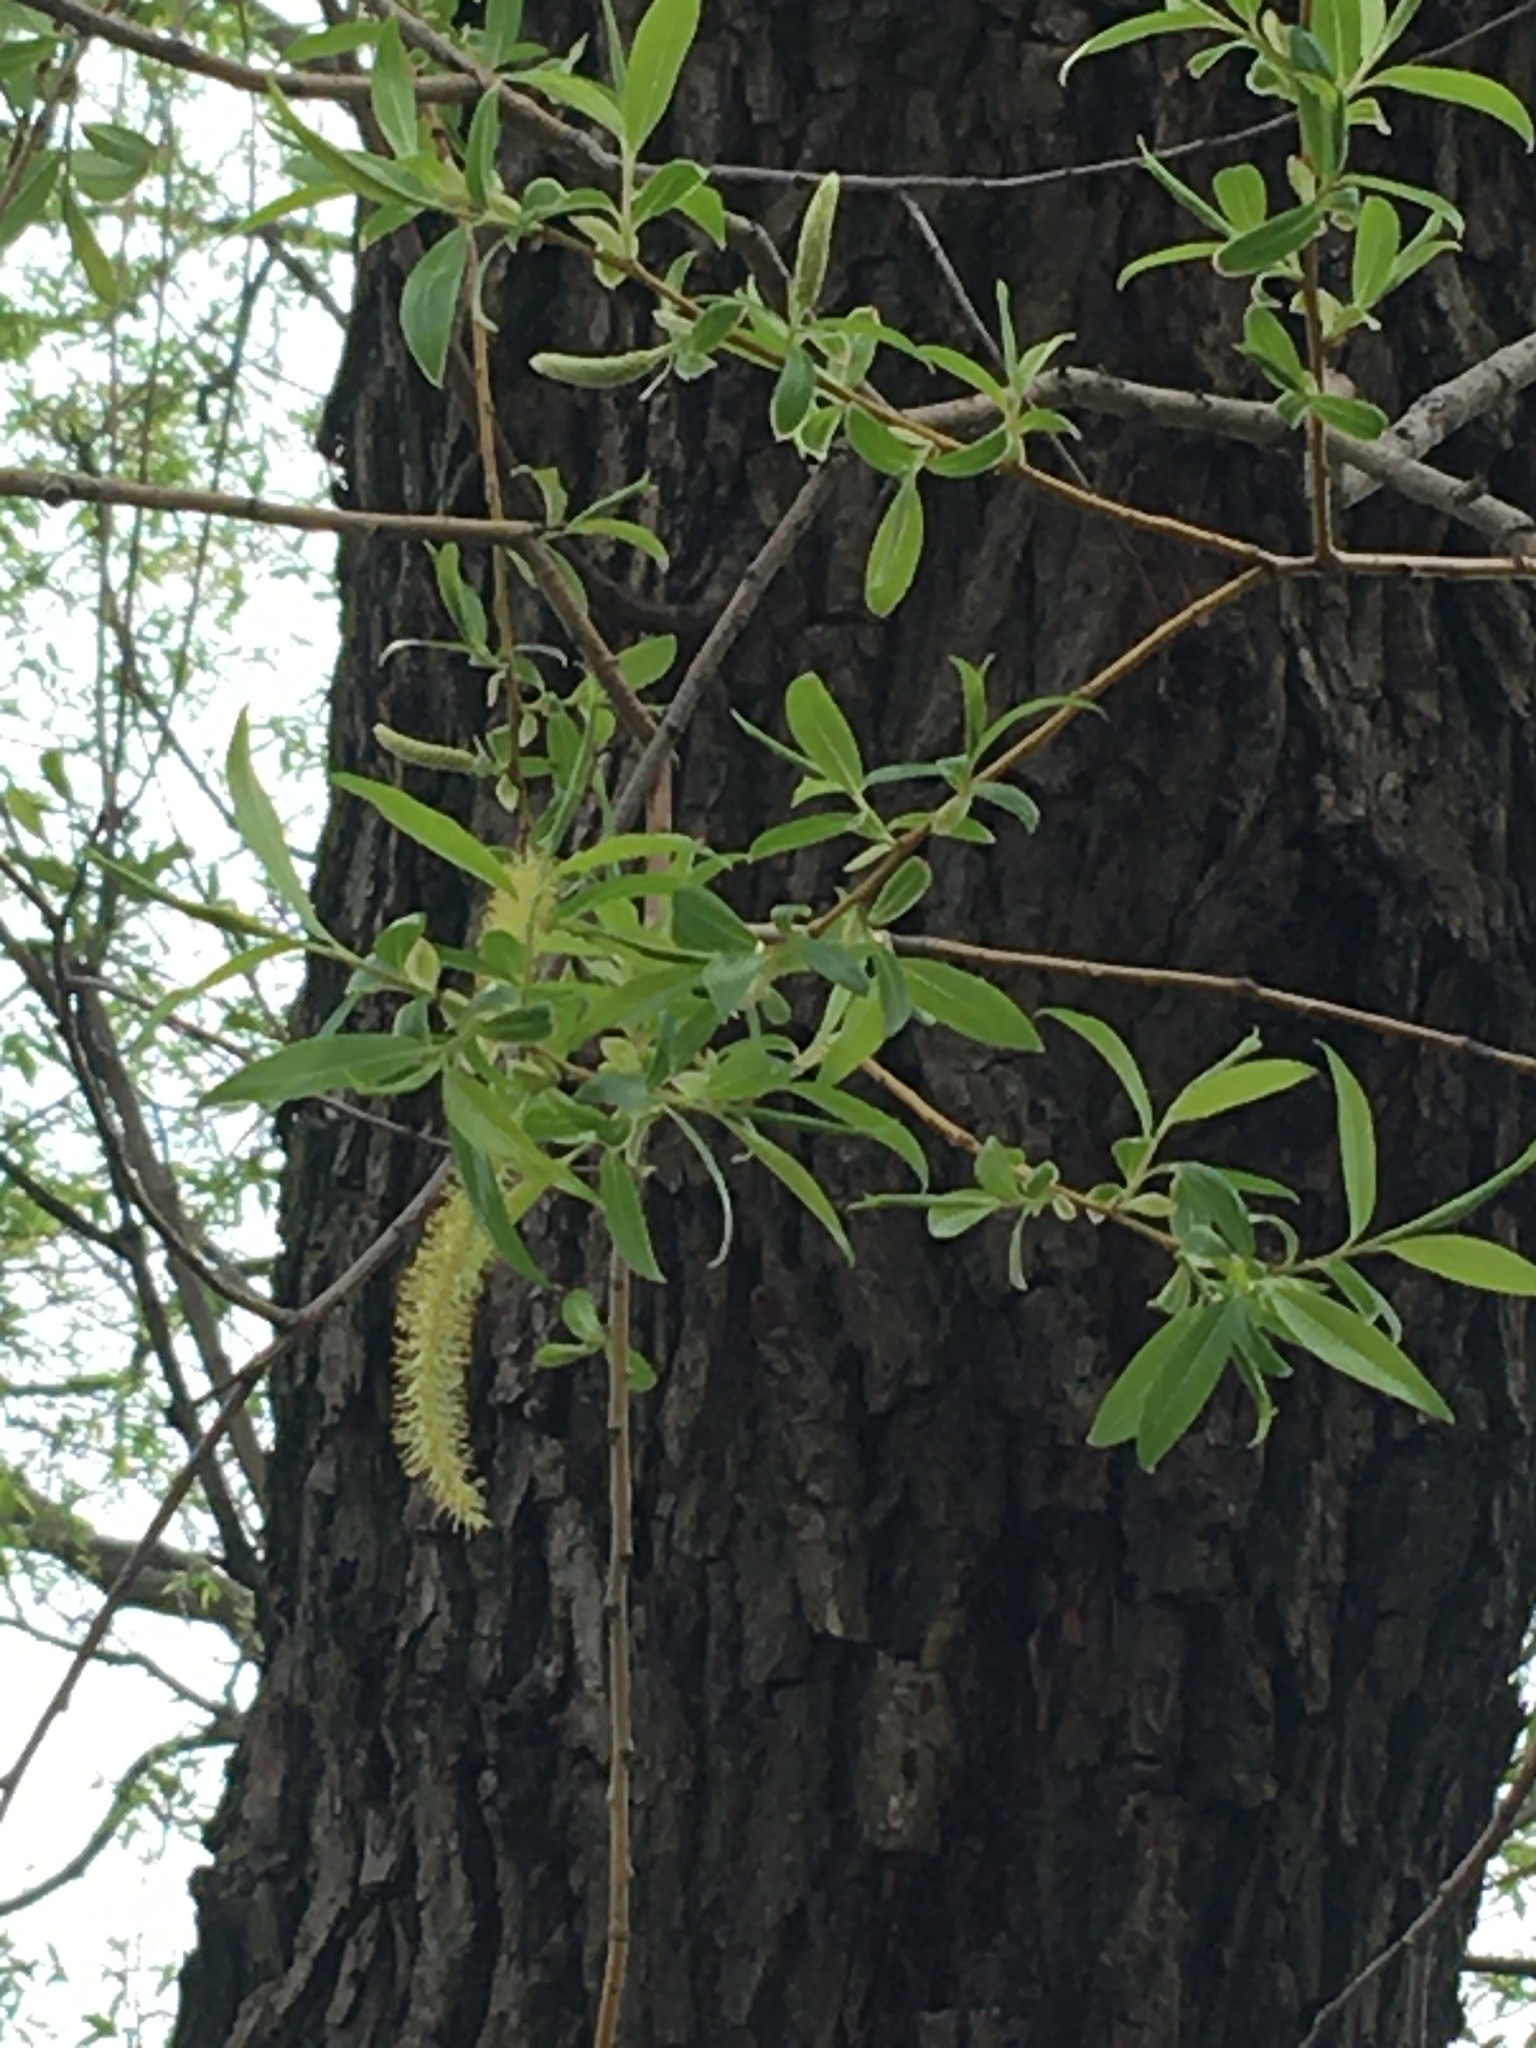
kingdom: Plantae
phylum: Tracheophyta
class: Magnoliopsida
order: Malpighiales
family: Salicaceae
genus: Salix
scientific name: Salix nigra
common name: Black willow
